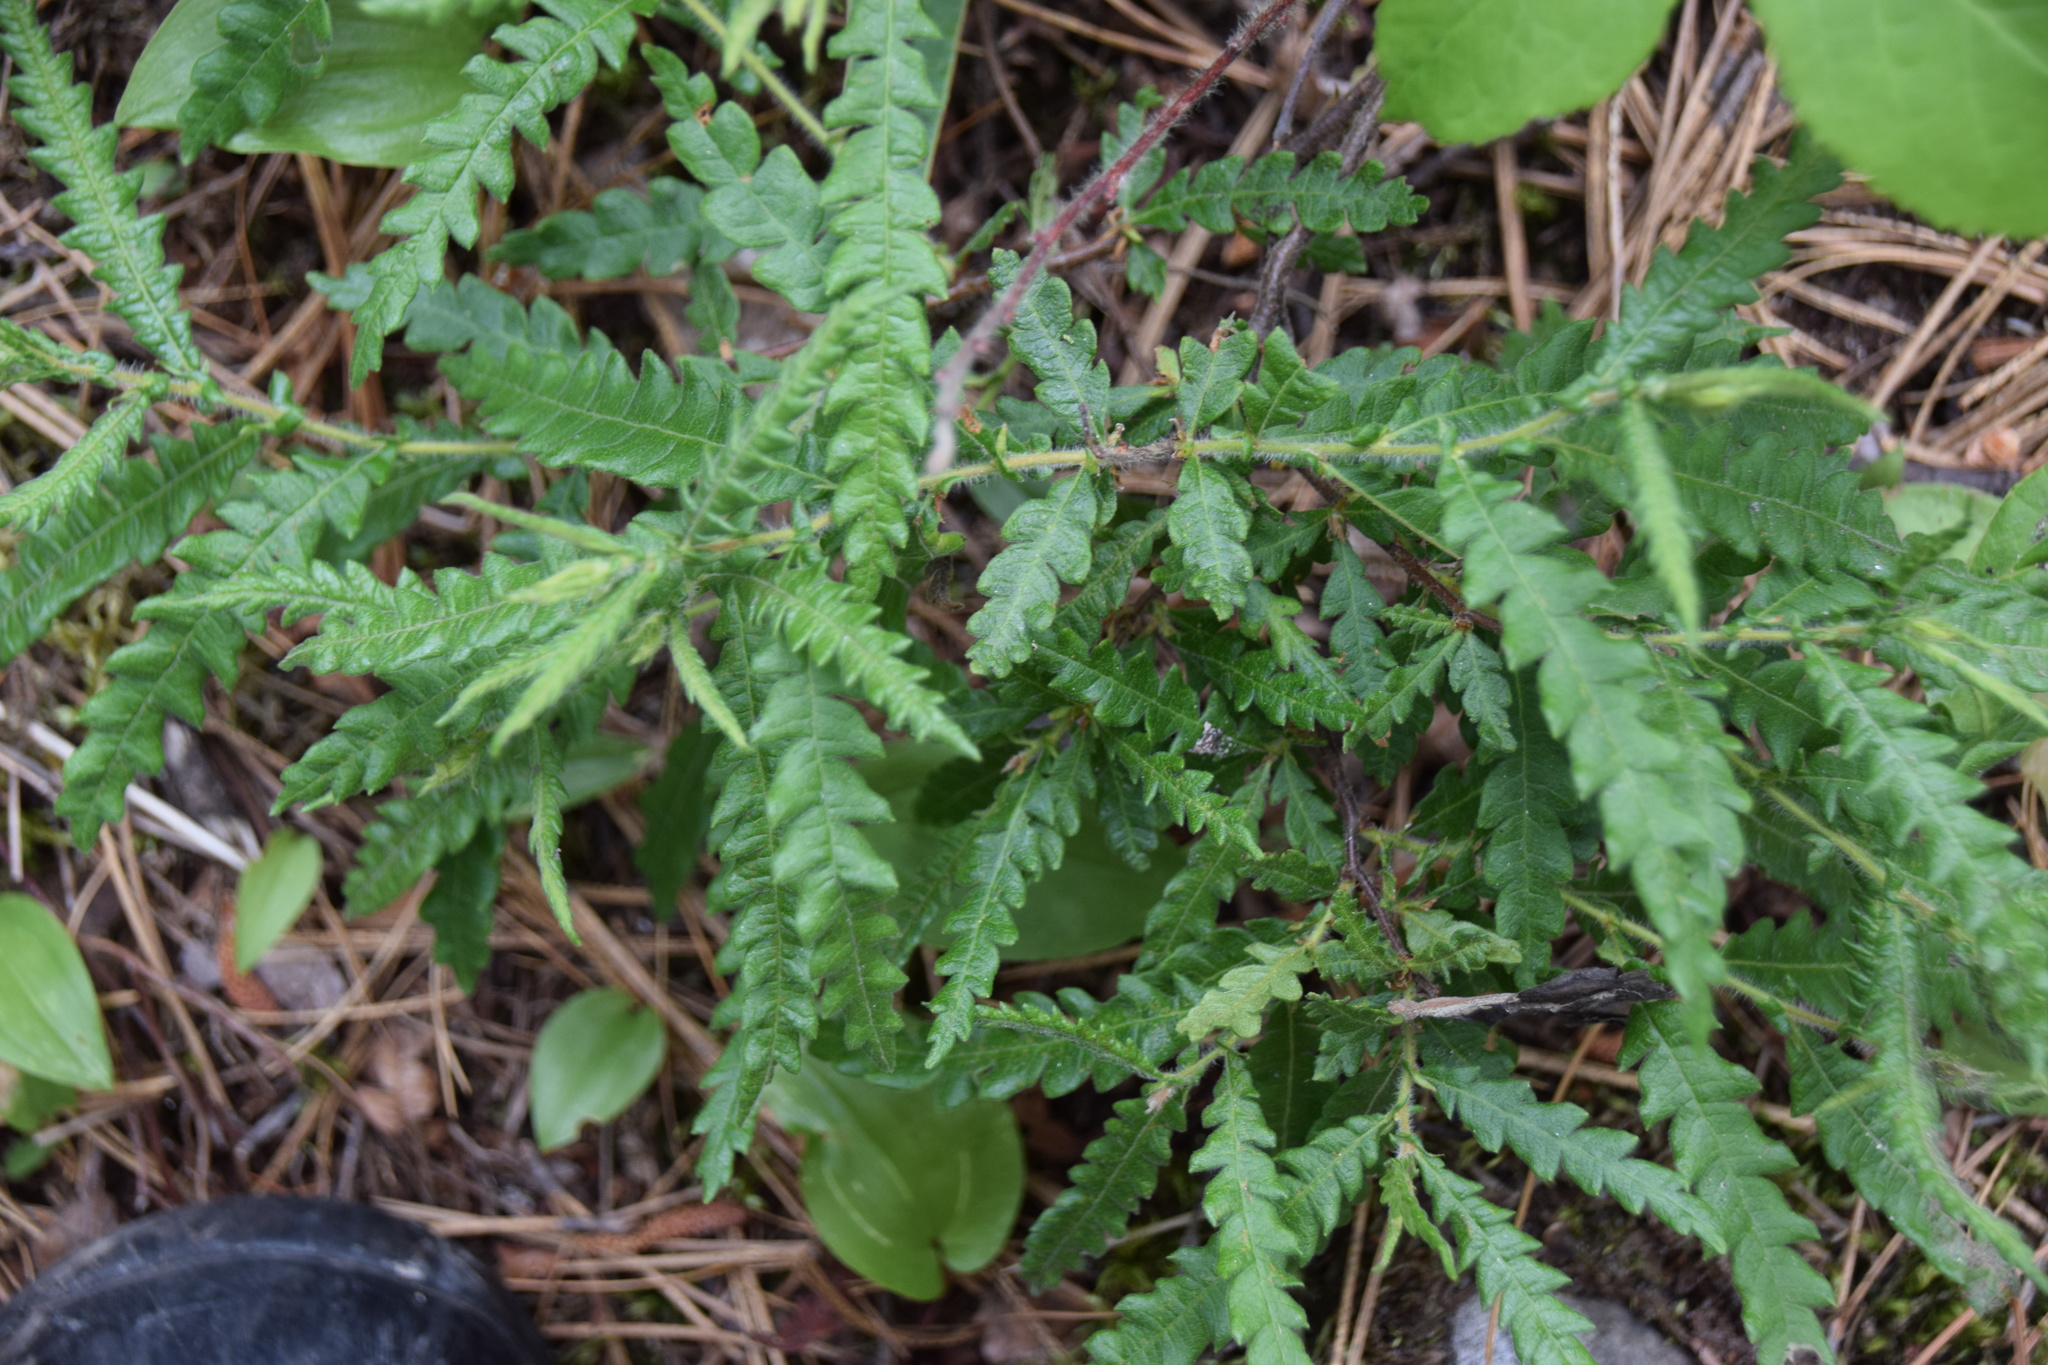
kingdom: Plantae
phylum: Tracheophyta
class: Magnoliopsida
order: Fagales
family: Myricaceae
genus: Comptonia
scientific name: Comptonia peregrina
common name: Sweet-fern
